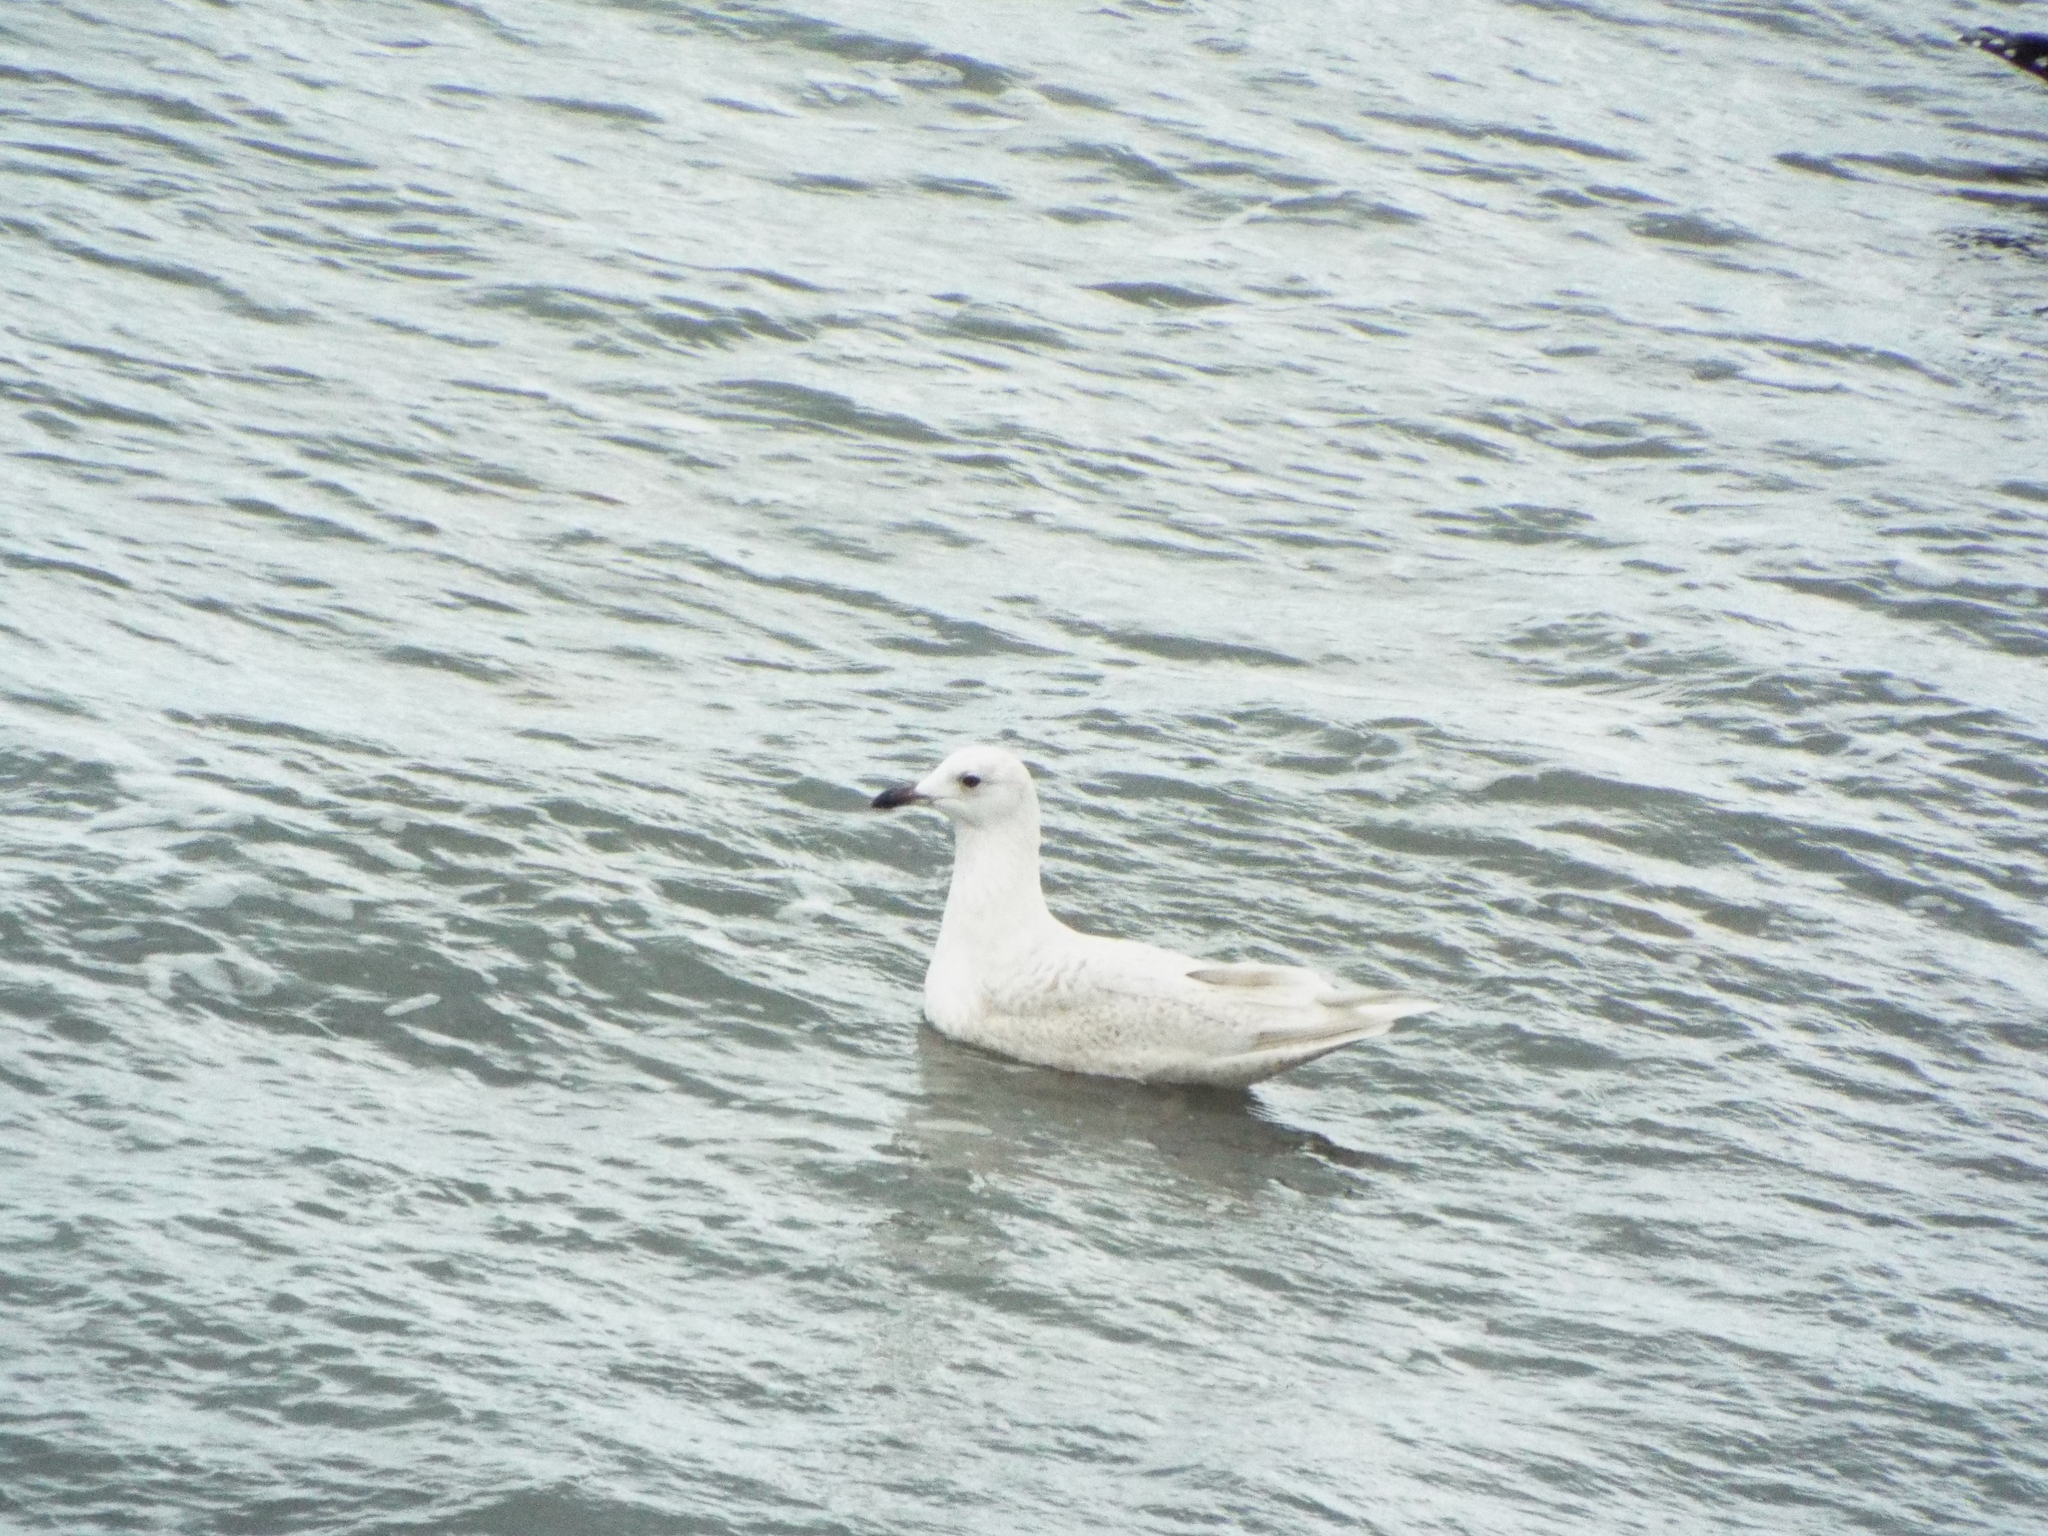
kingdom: Animalia
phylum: Chordata
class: Aves
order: Charadriiformes
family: Laridae
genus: Larus
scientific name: Larus glaucoides
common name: Iceland gull
